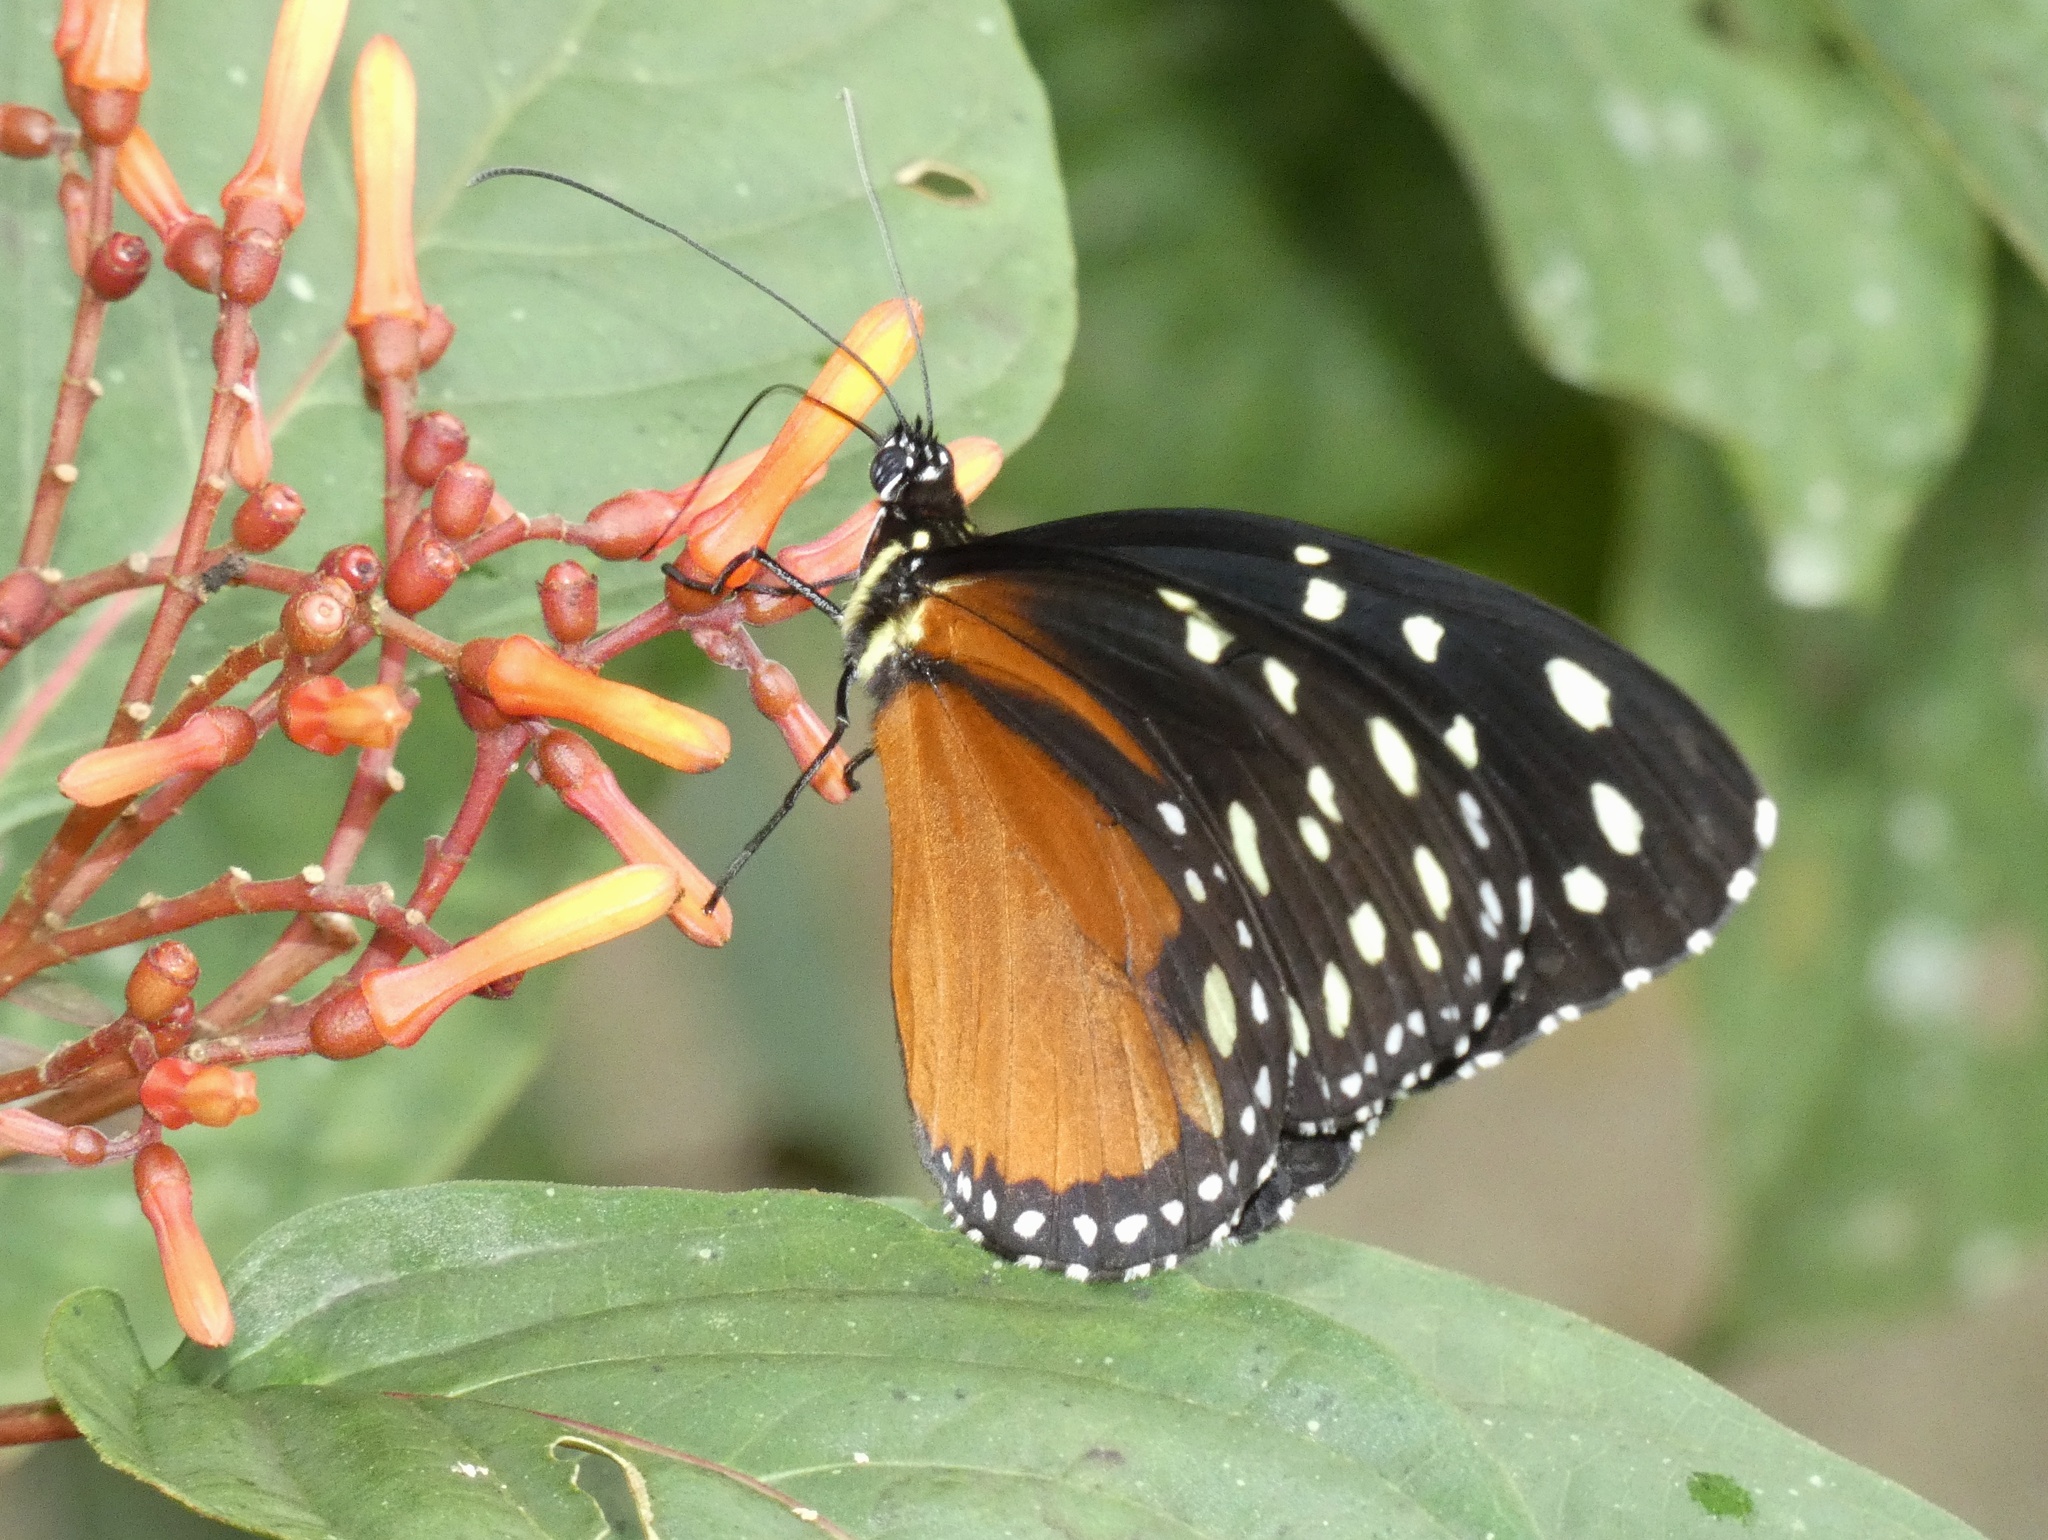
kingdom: Animalia
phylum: Arthropoda
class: Insecta
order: Lepidoptera
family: Nymphalidae
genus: Tithorea
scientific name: Tithorea tarricina
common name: Cream-spotted tigerwing
